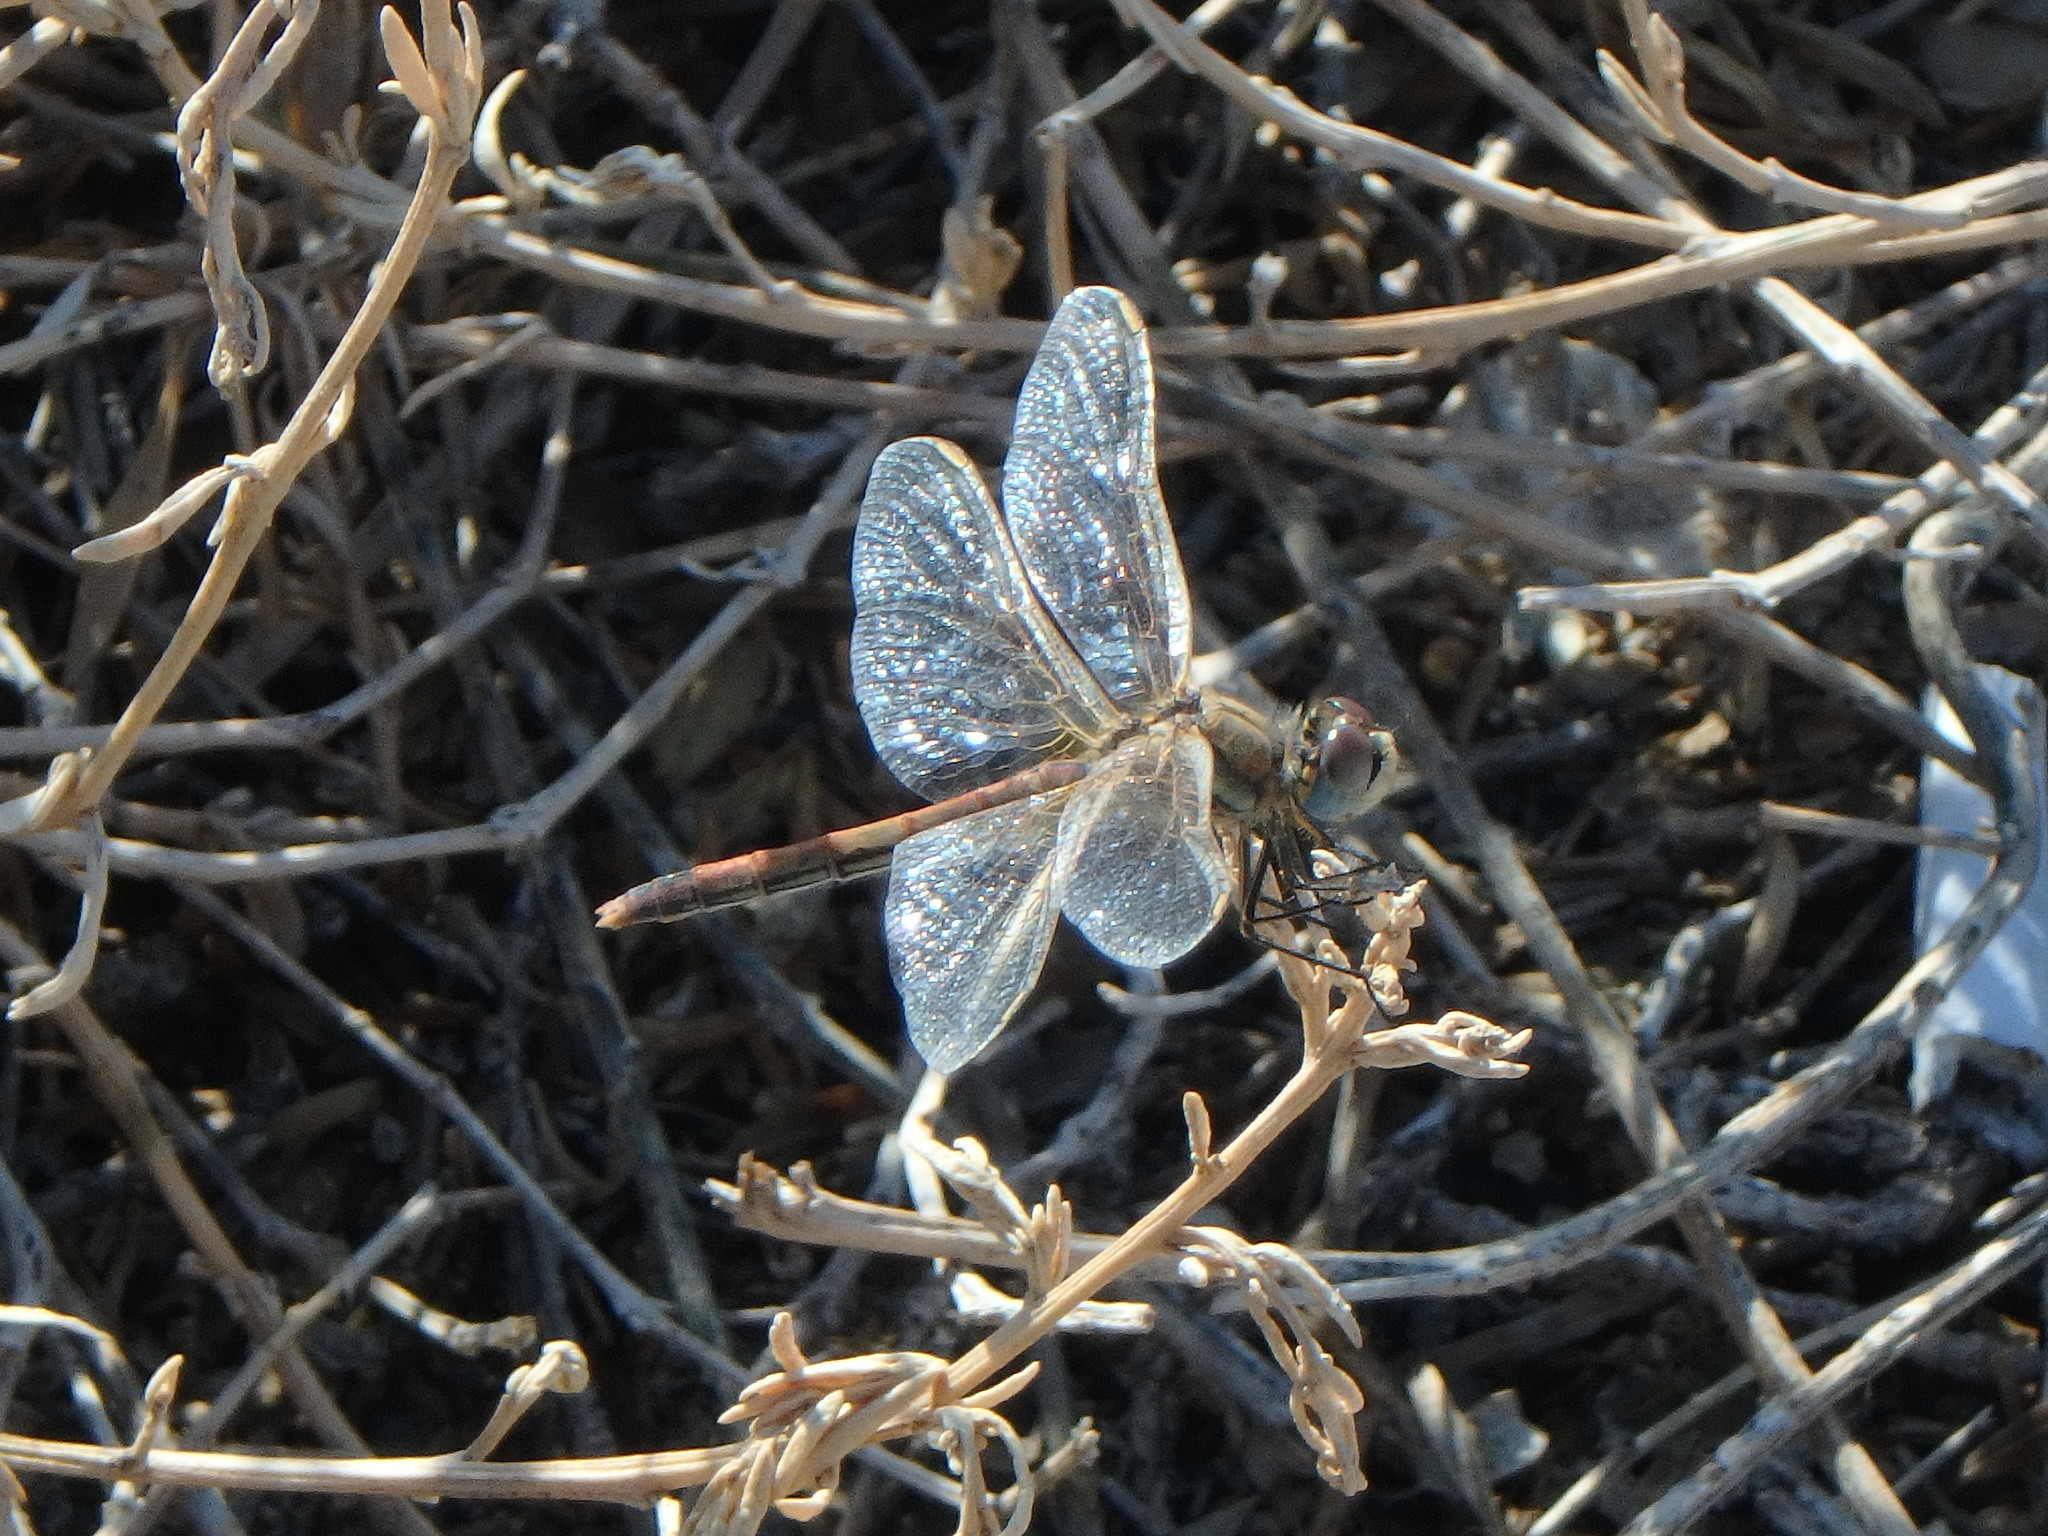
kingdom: Animalia
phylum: Arthropoda
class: Insecta
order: Odonata
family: Libellulidae
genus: Sympetrum
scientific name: Sympetrum fonscolombii
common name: Red-veined darter
